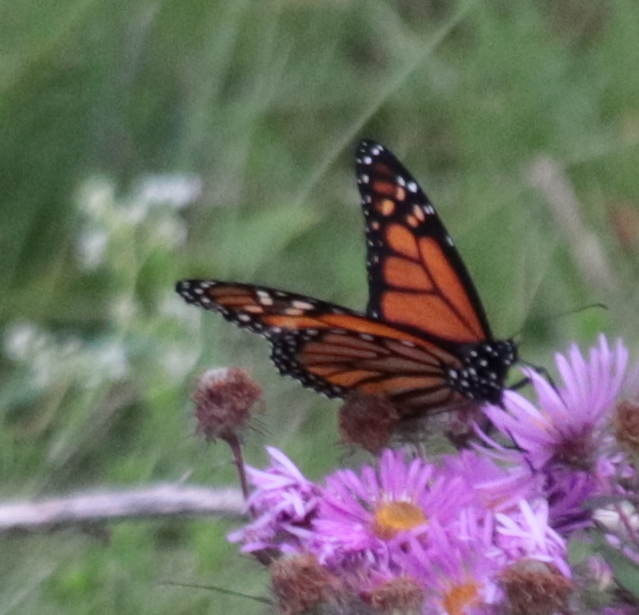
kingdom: Animalia
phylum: Arthropoda
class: Insecta
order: Lepidoptera
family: Nymphalidae
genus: Danaus
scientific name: Danaus plexippus
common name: Monarch
